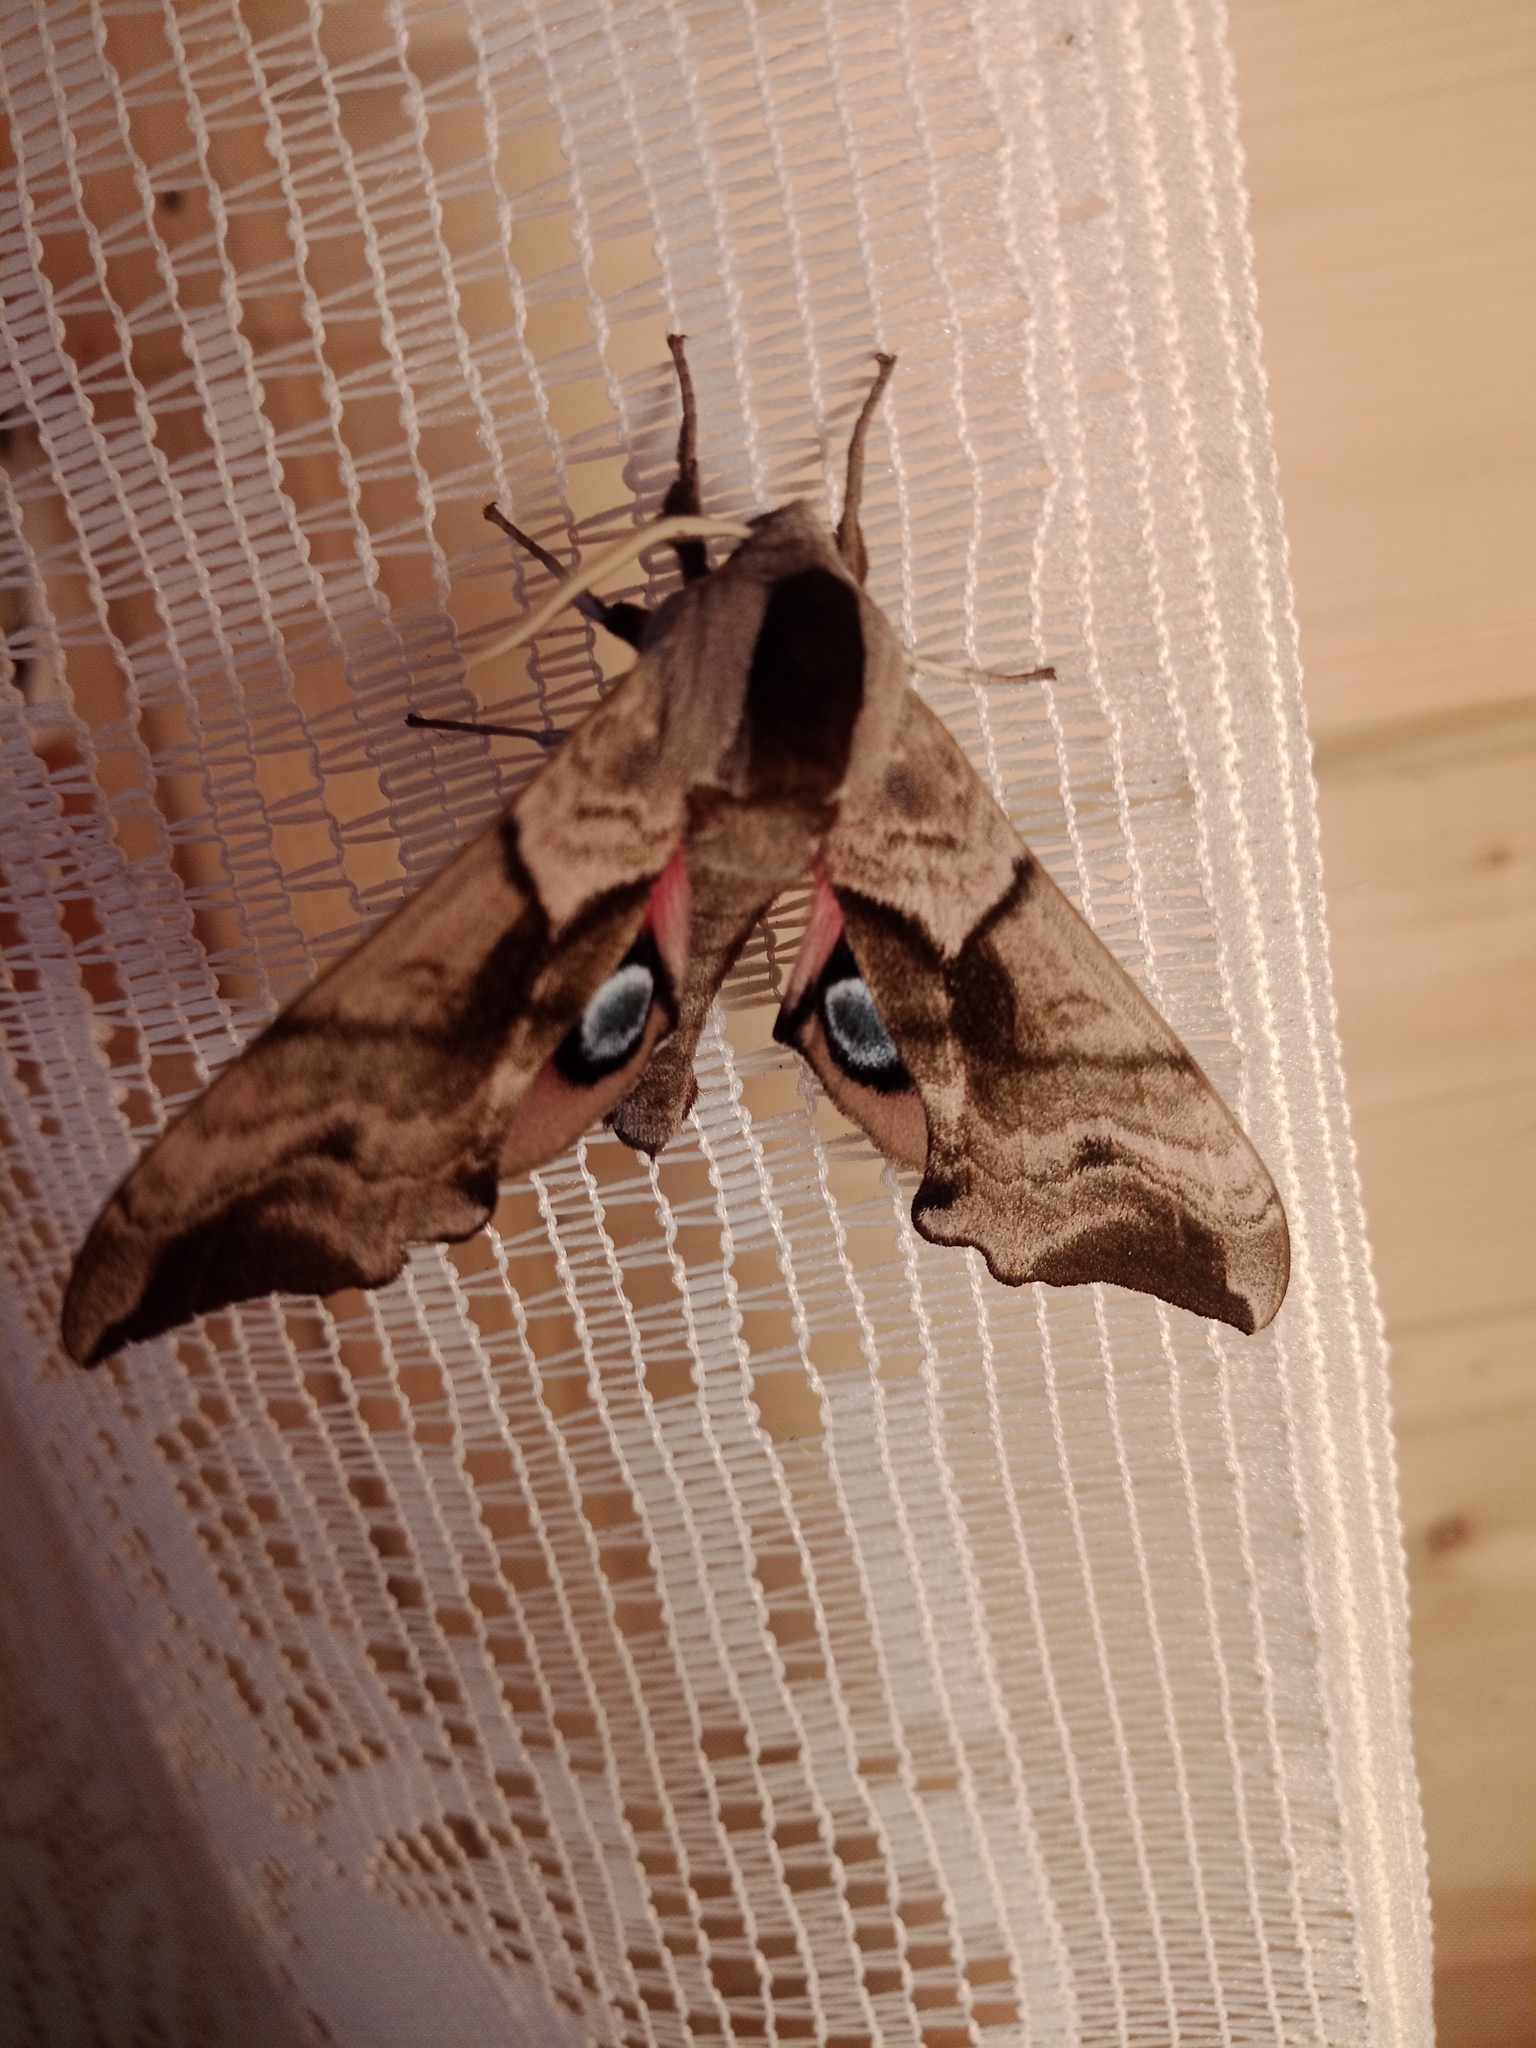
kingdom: Animalia
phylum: Arthropoda
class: Insecta
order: Lepidoptera
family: Sphingidae
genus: Smerinthus
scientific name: Smerinthus ocellata
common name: Eyed hawk-moth
